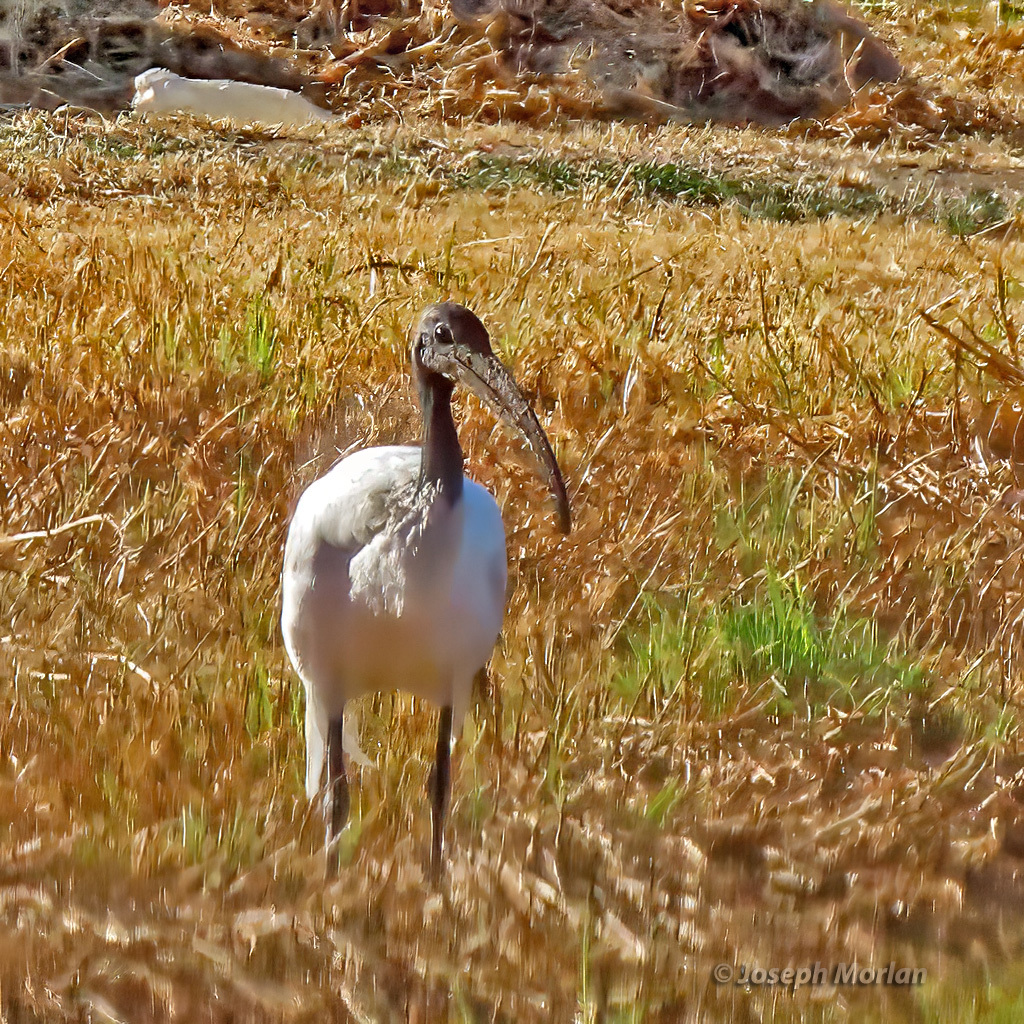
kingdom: Animalia
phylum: Chordata
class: Aves
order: Pelecaniformes
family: Threskiornithidae
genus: Threskiornis
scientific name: Threskiornis aethiopicus
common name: Sacred ibis
